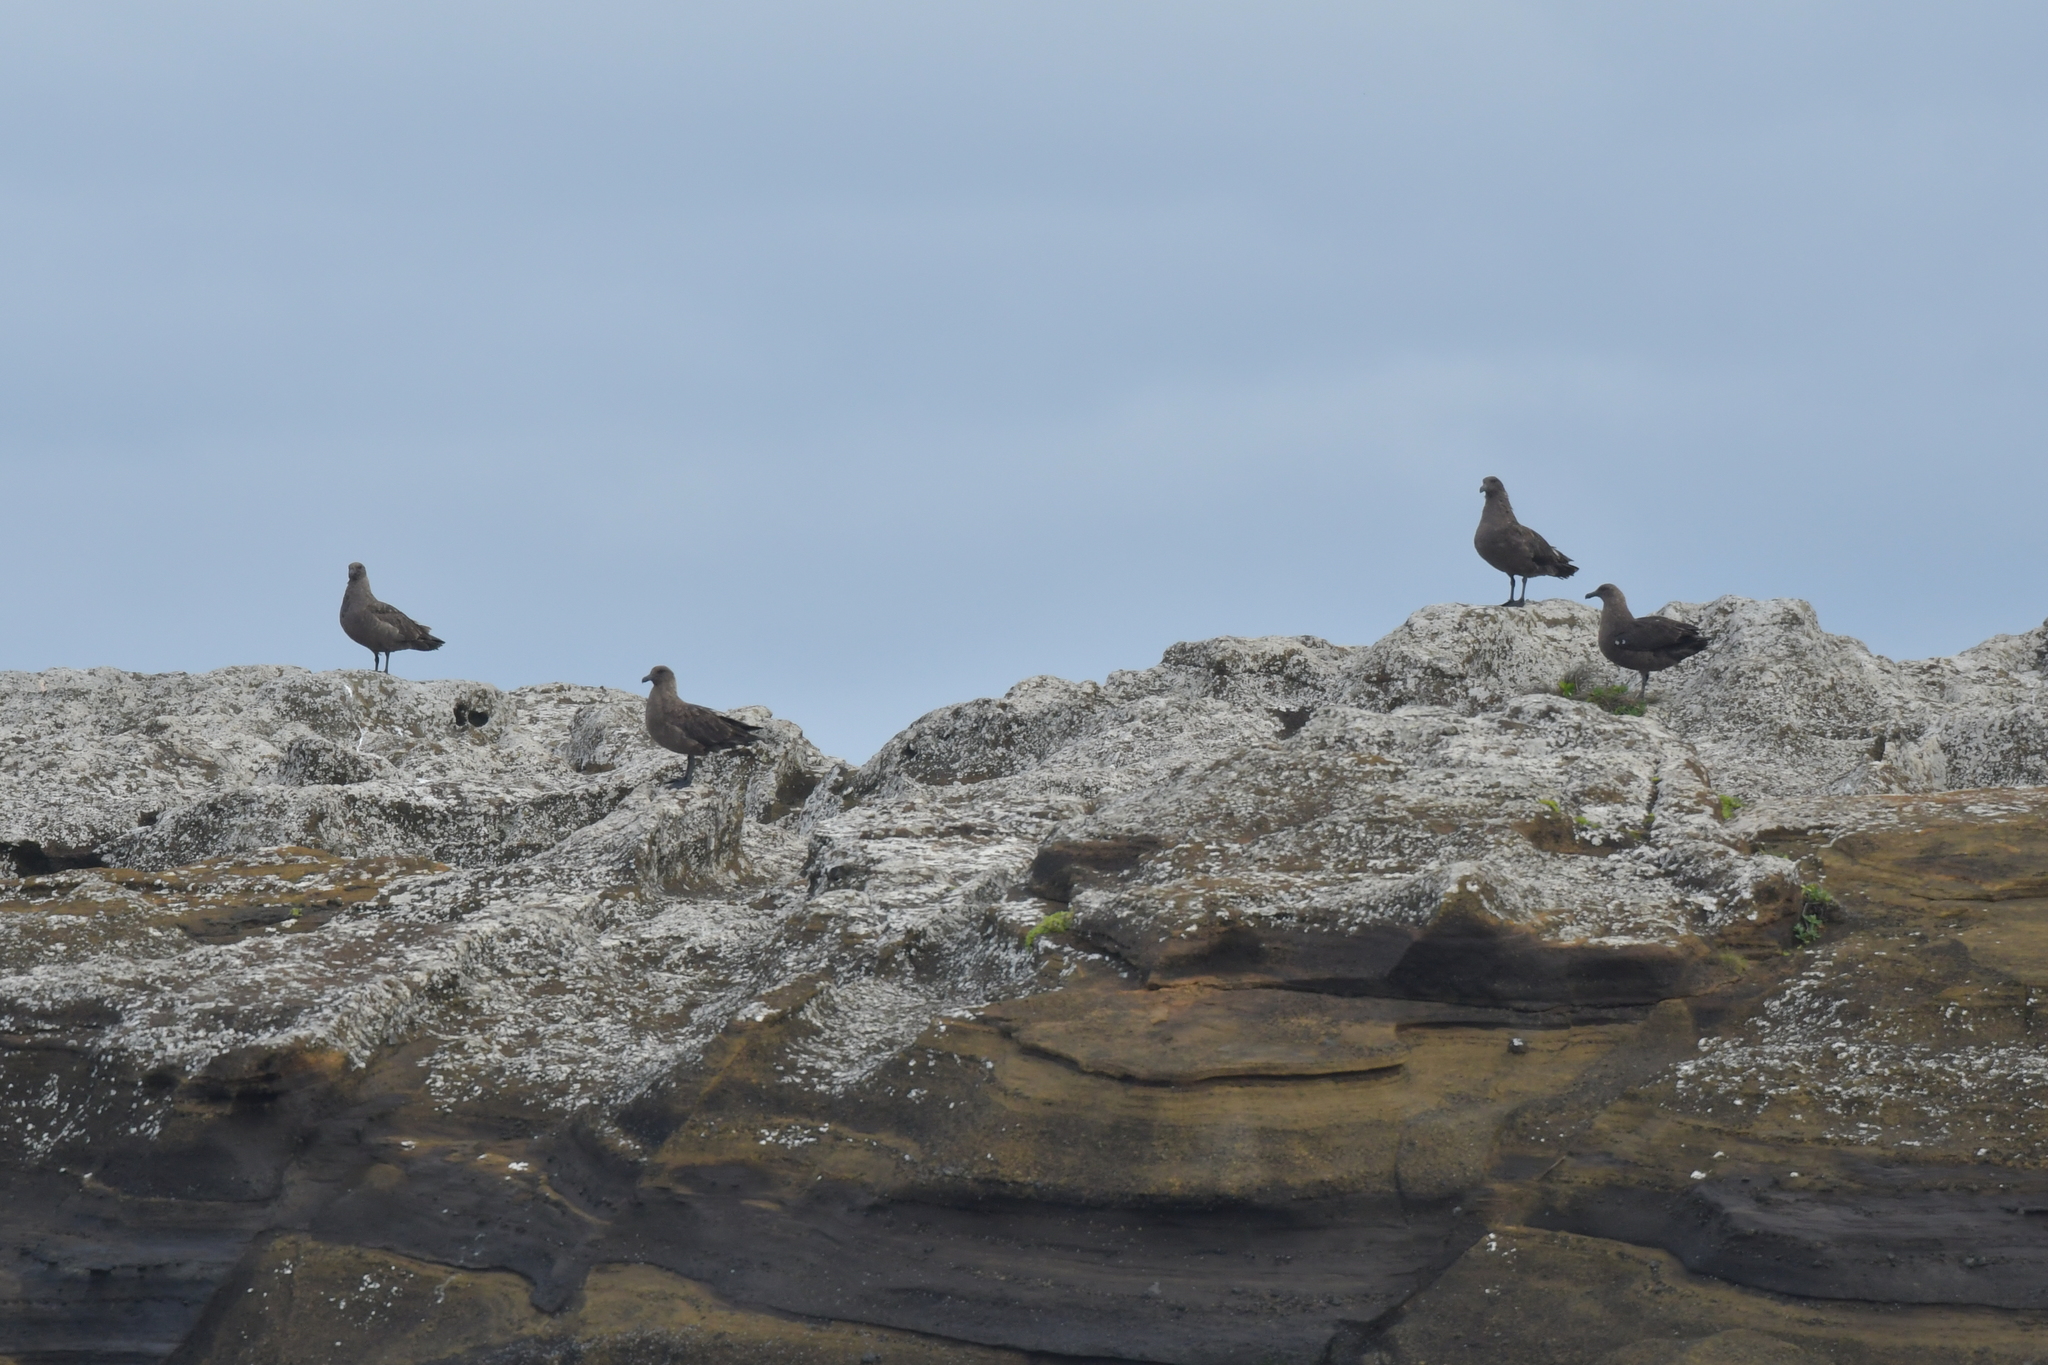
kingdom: Animalia
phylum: Chordata
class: Aves
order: Charadriiformes
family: Stercorariidae
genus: Stercorarius
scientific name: Stercorarius antarcticus
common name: Brown skua
